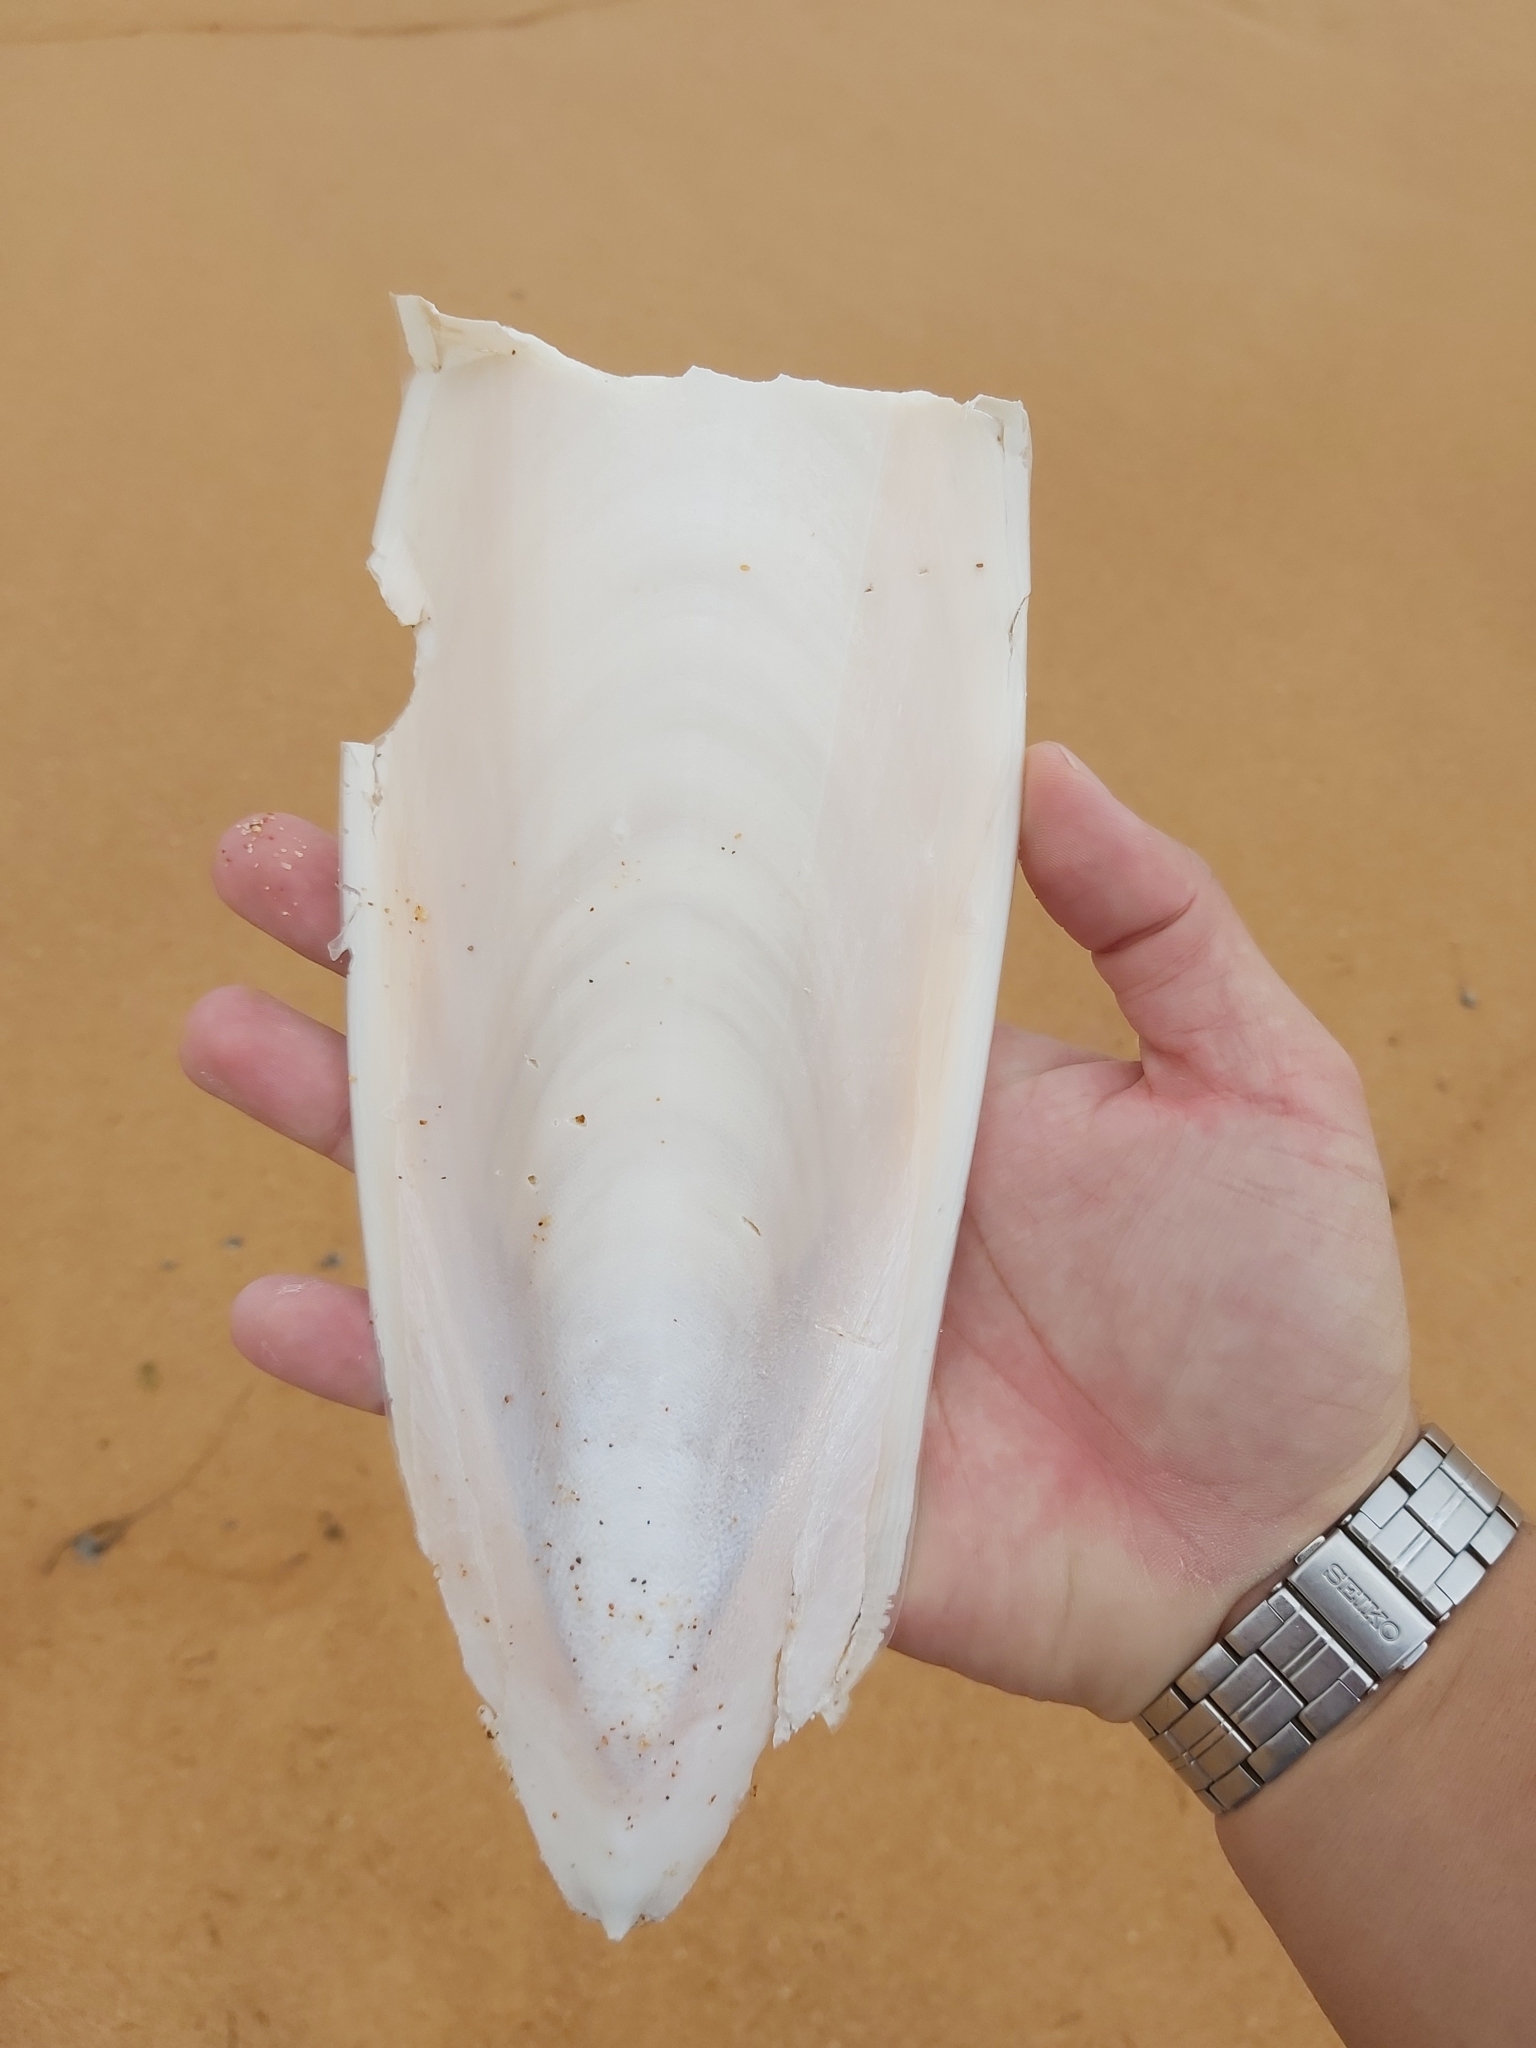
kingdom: Animalia
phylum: Mollusca
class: Cephalopoda
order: Sepiida
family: Sepiidae
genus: Ascarosepion
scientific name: Ascarosepion apama
